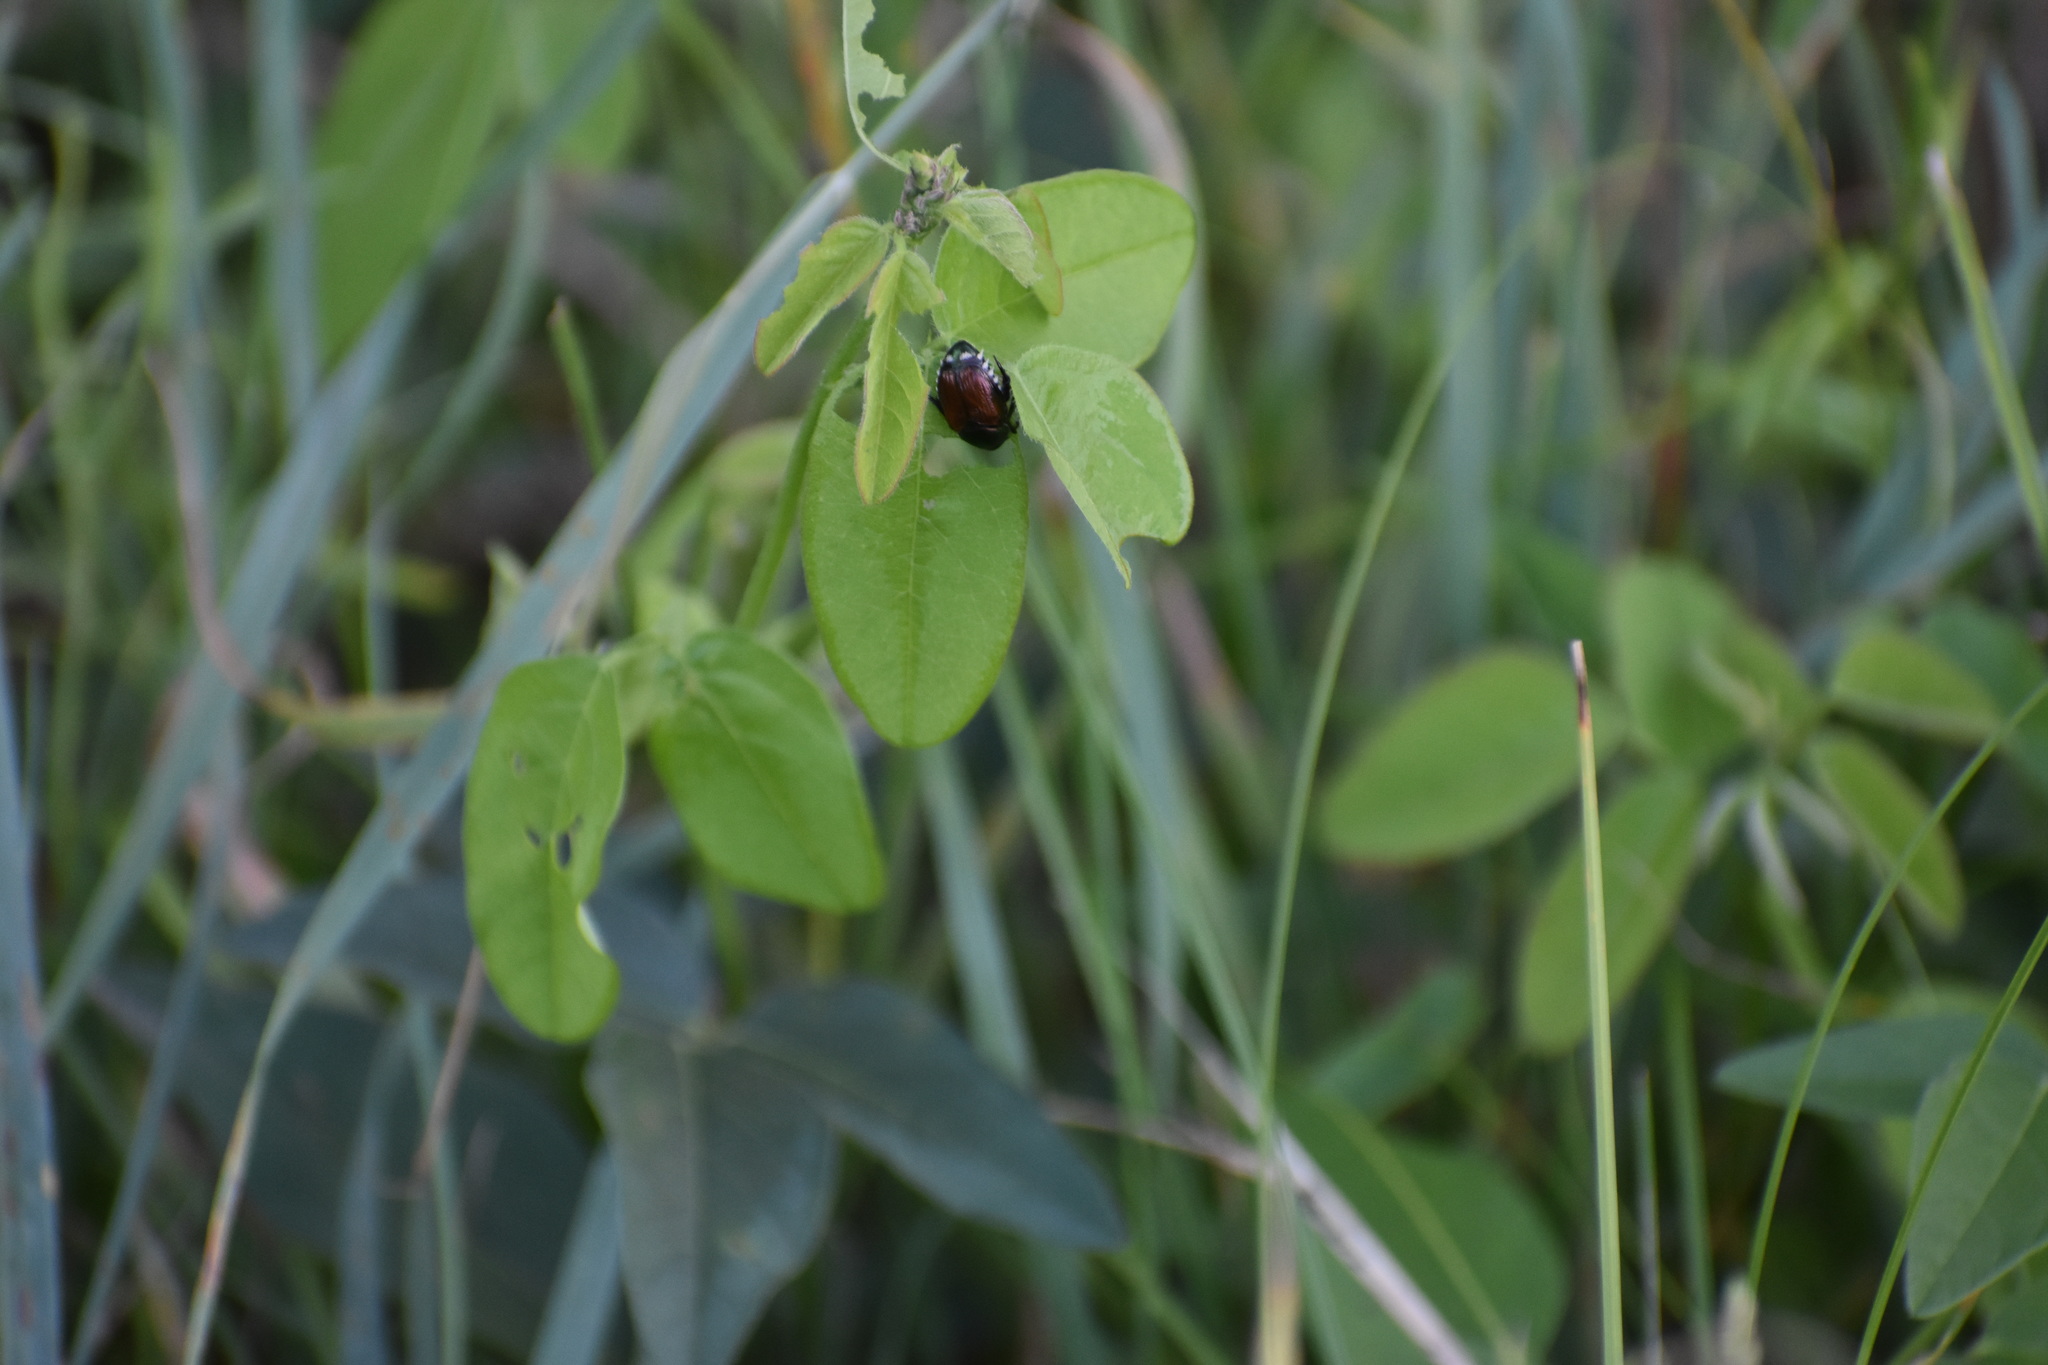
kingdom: Animalia
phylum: Arthropoda
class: Insecta
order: Coleoptera
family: Scarabaeidae
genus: Popillia
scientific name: Popillia japonica
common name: Japanese beetle
